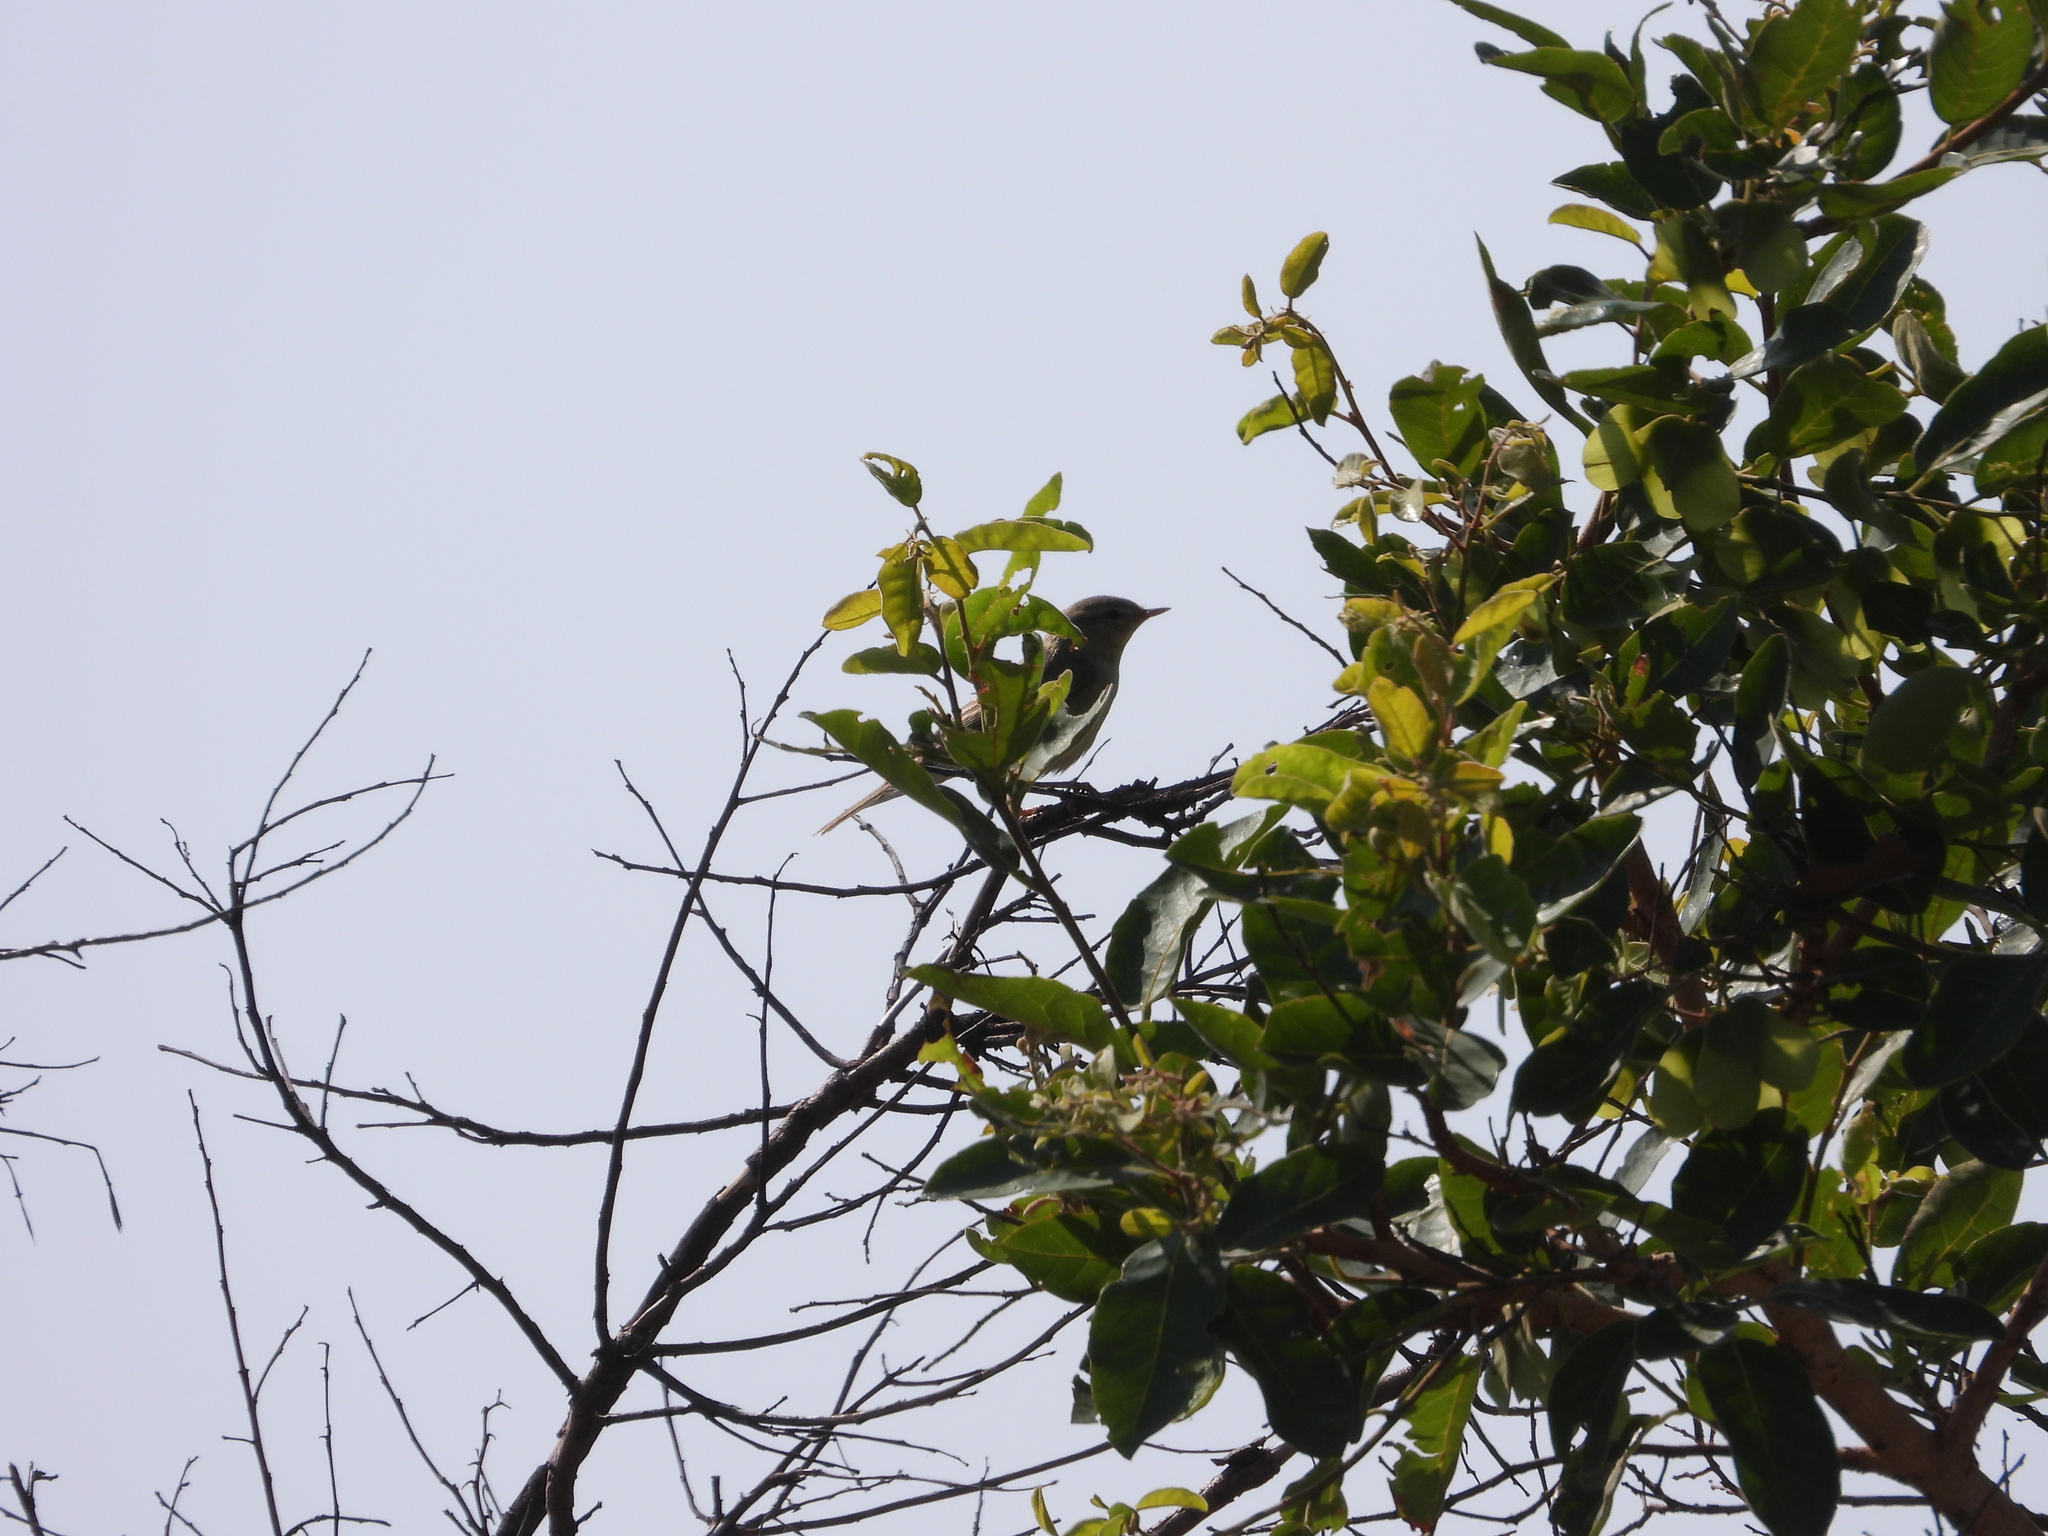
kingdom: Animalia
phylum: Chordata
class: Aves
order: Passeriformes
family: Phylloscopidae
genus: Phylloscopus
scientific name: Phylloscopus trochilus
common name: Willow warbler
